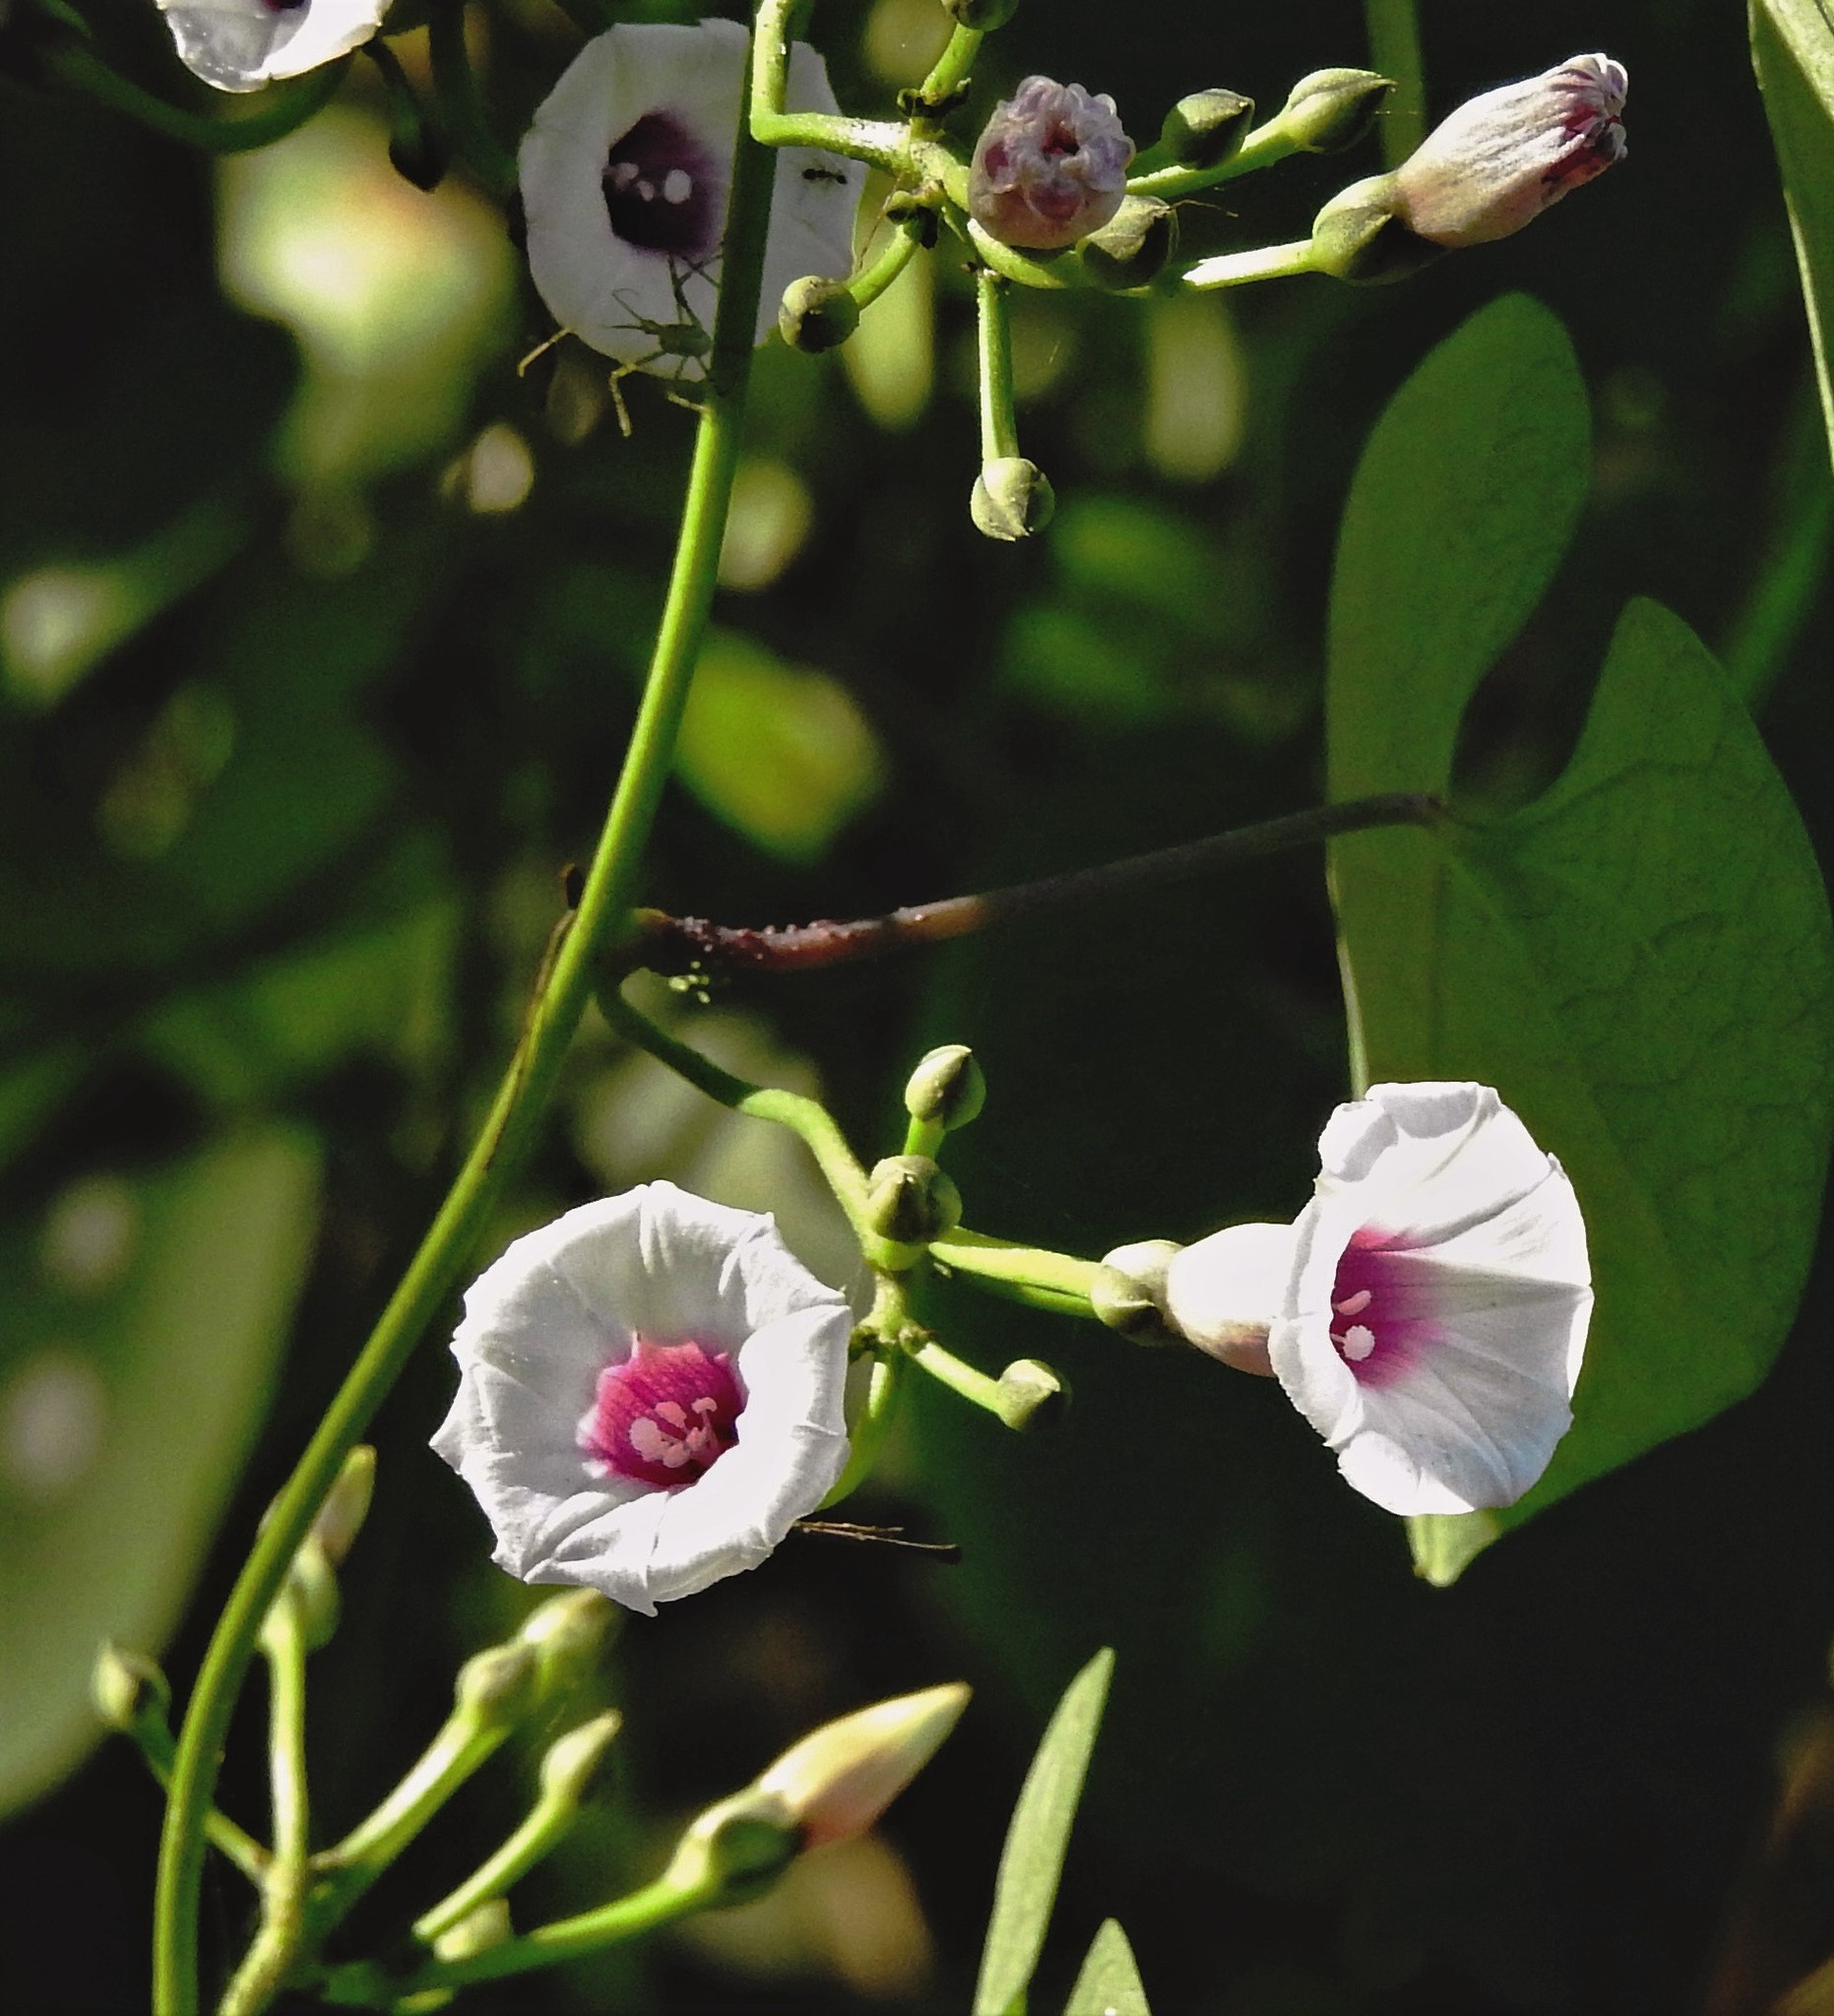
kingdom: Plantae
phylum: Tracheophyta
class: Magnoliopsida
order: Solanales
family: Convolvulaceae
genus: Ipomoea
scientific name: Ipomoea amnicola
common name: Redcenter morning-glory
